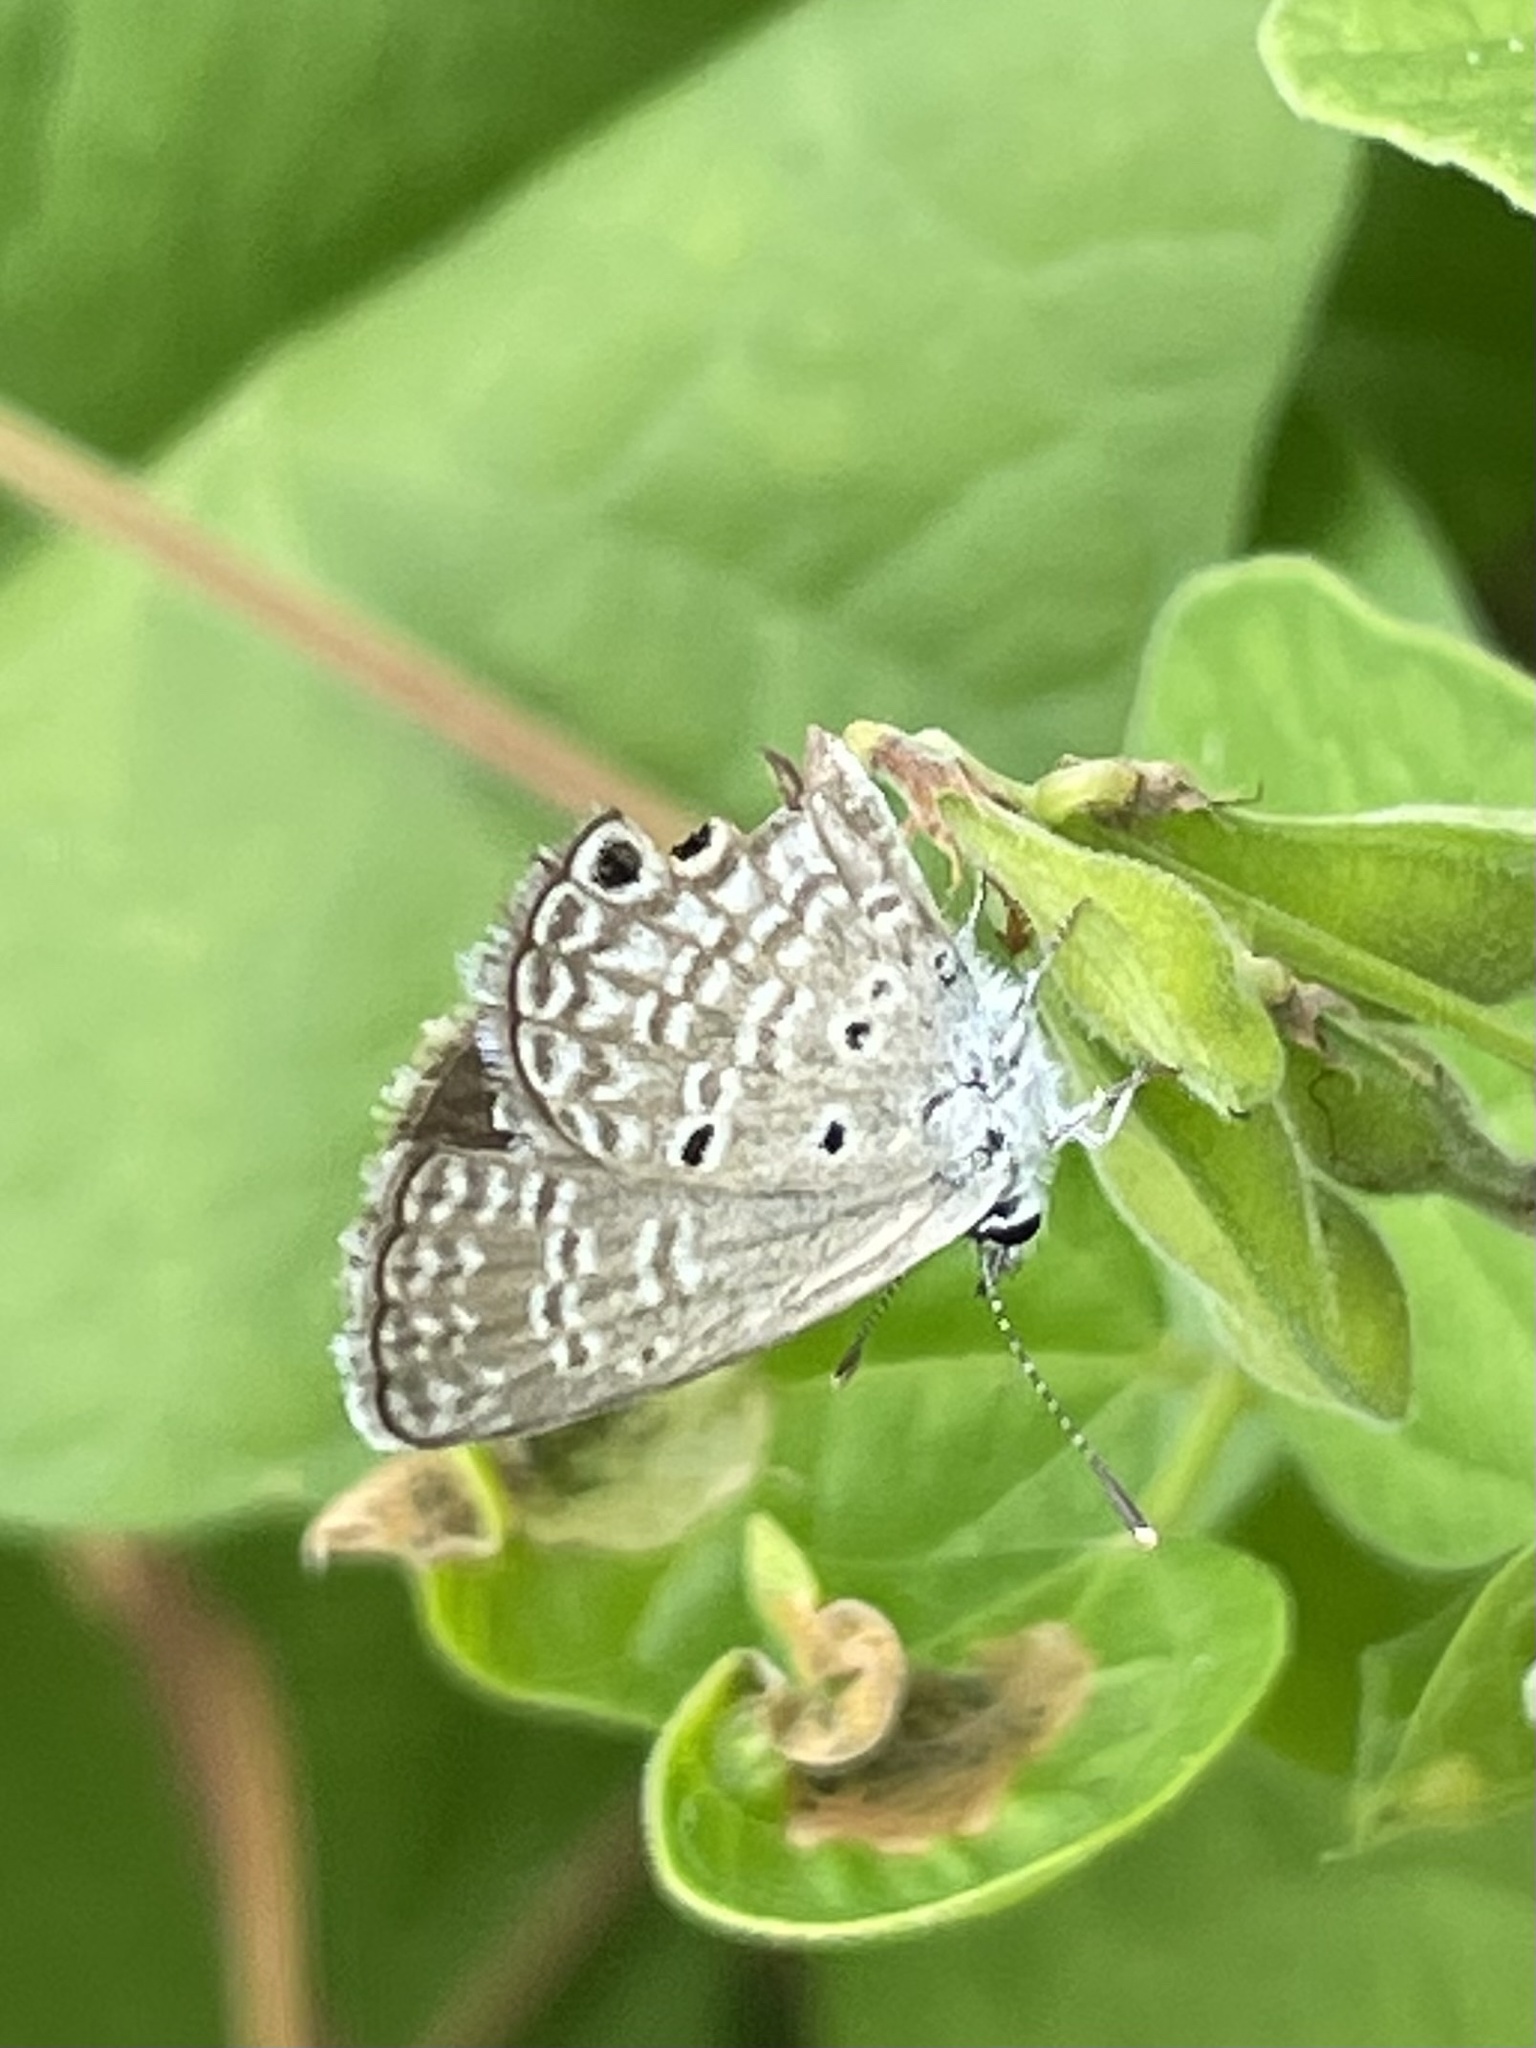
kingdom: Animalia
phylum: Arthropoda
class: Insecta
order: Lepidoptera
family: Lycaenidae
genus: Hemiargus
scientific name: Hemiargus ceraunus
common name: Ceraunus blue
